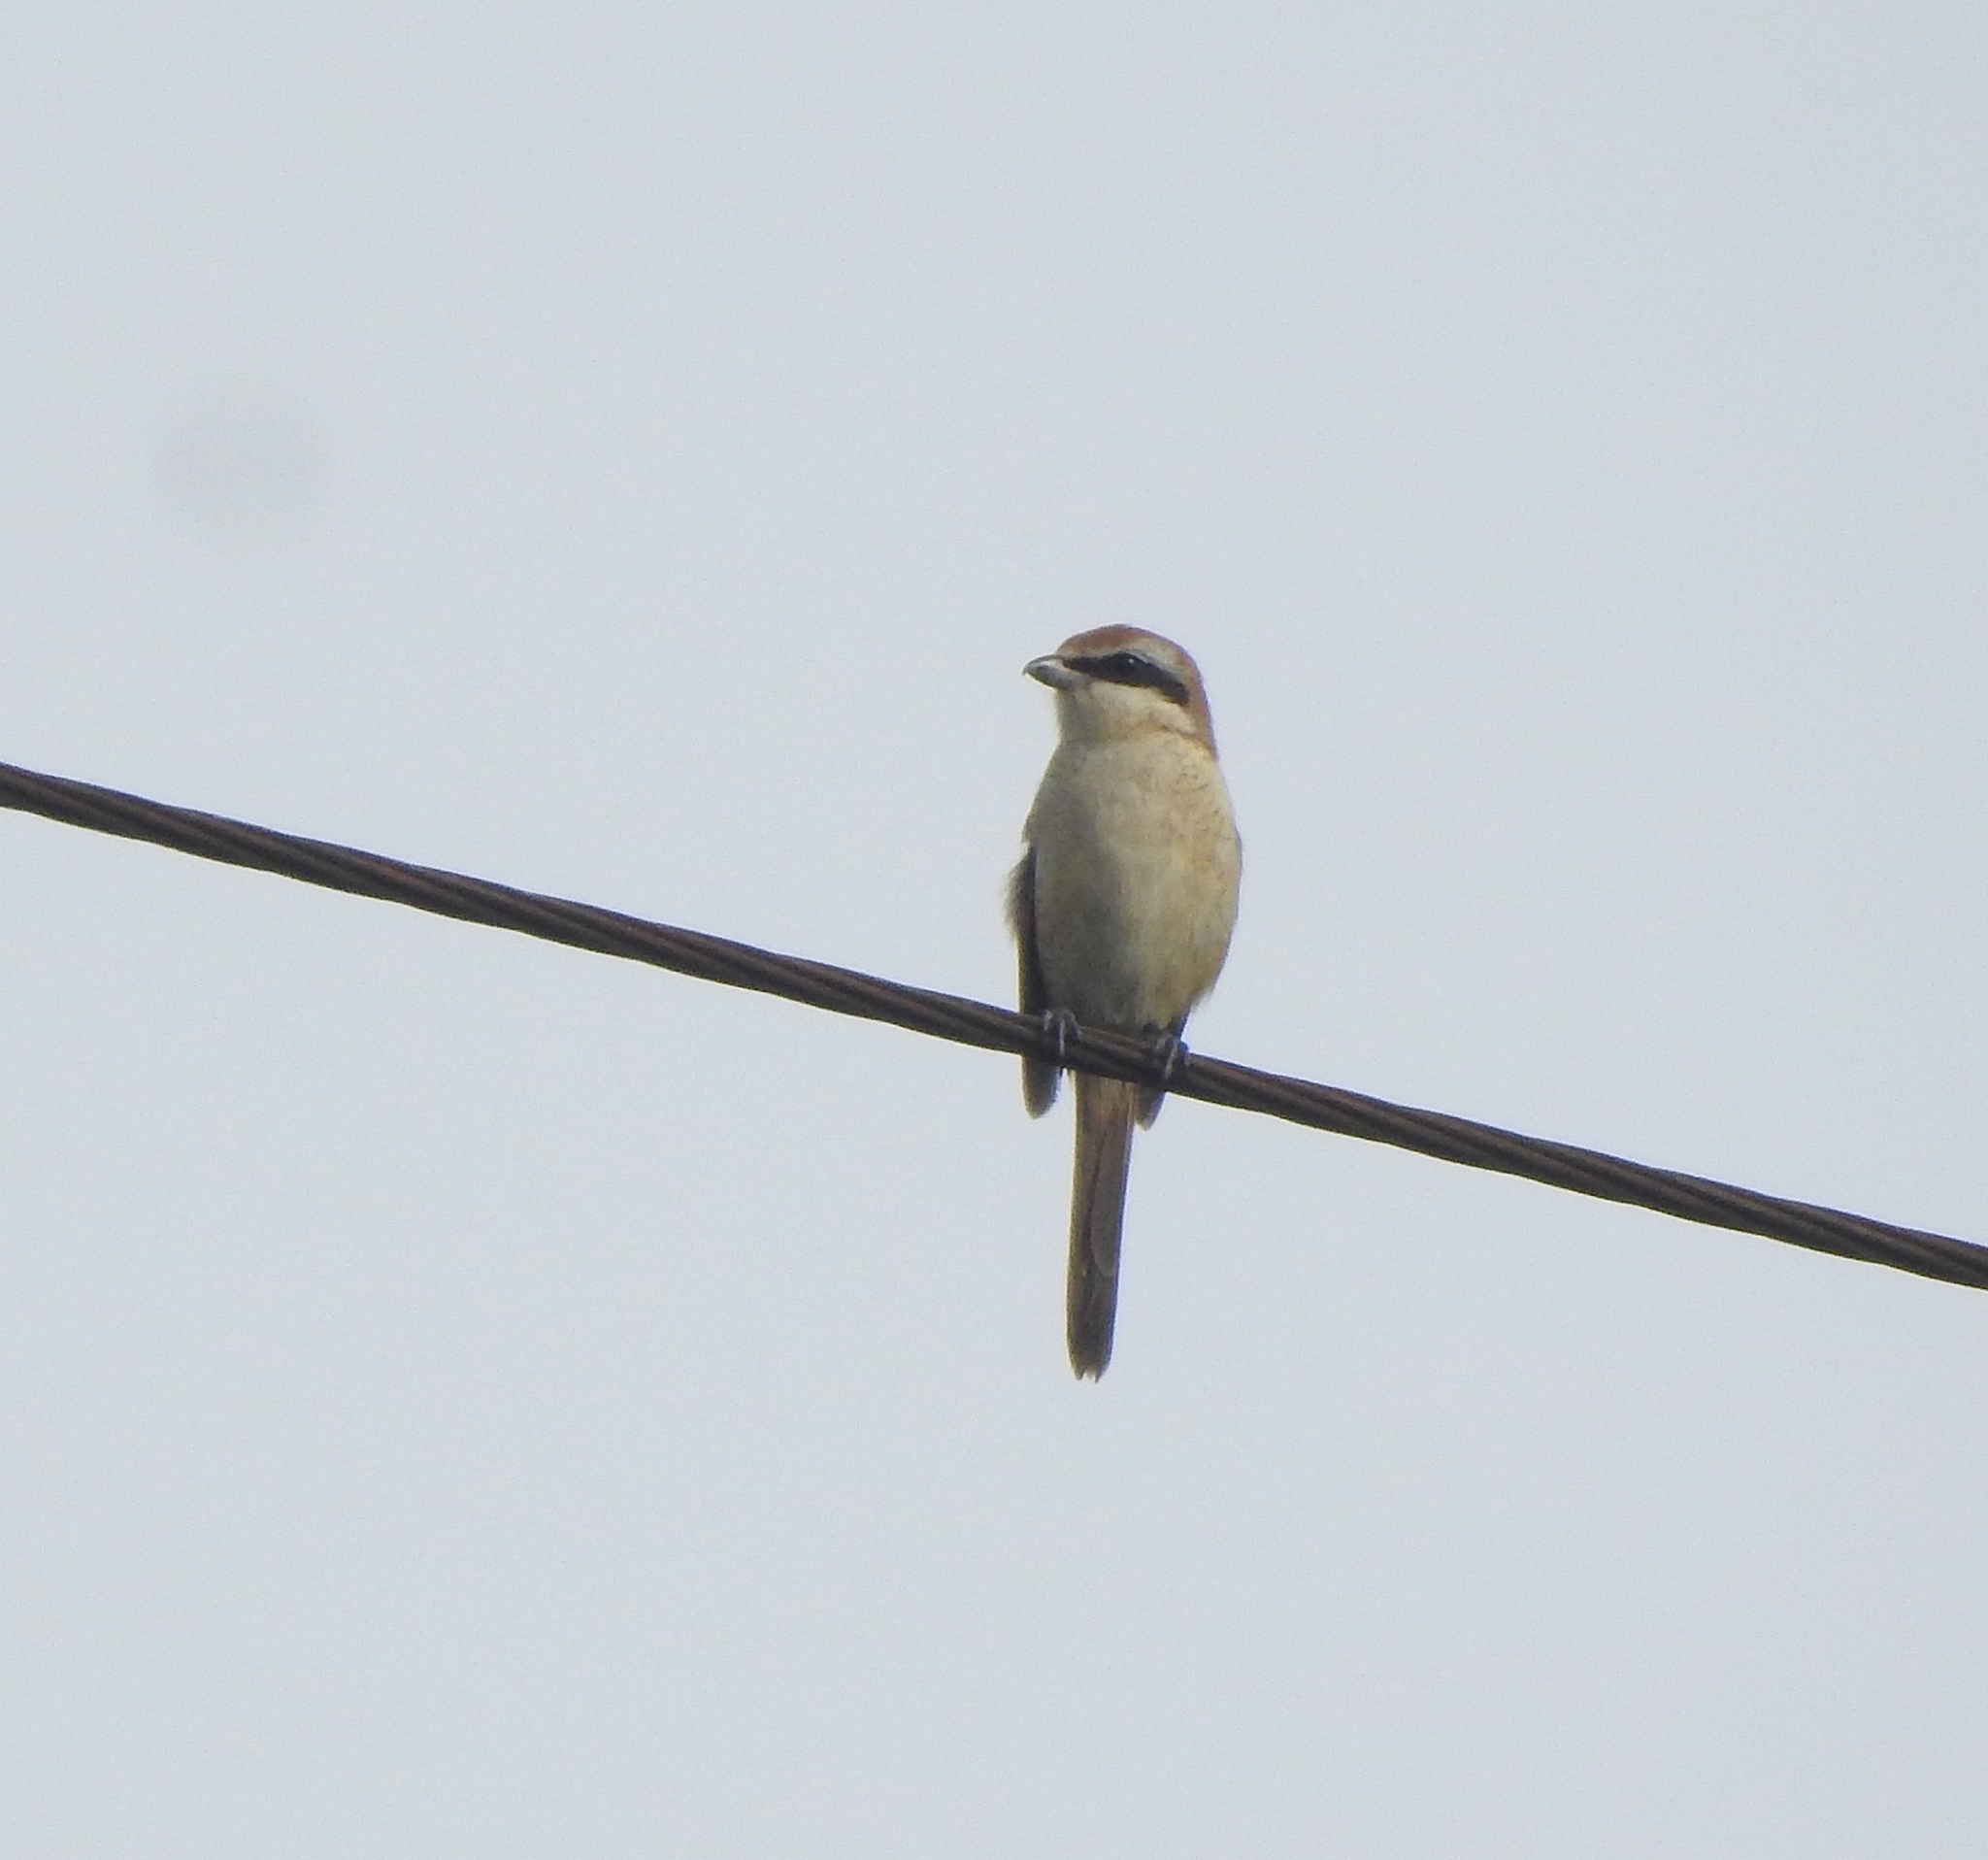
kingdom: Animalia
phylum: Chordata
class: Aves
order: Passeriformes
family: Laniidae
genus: Lanius
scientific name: Lanius cristatus
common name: Brown shrike
